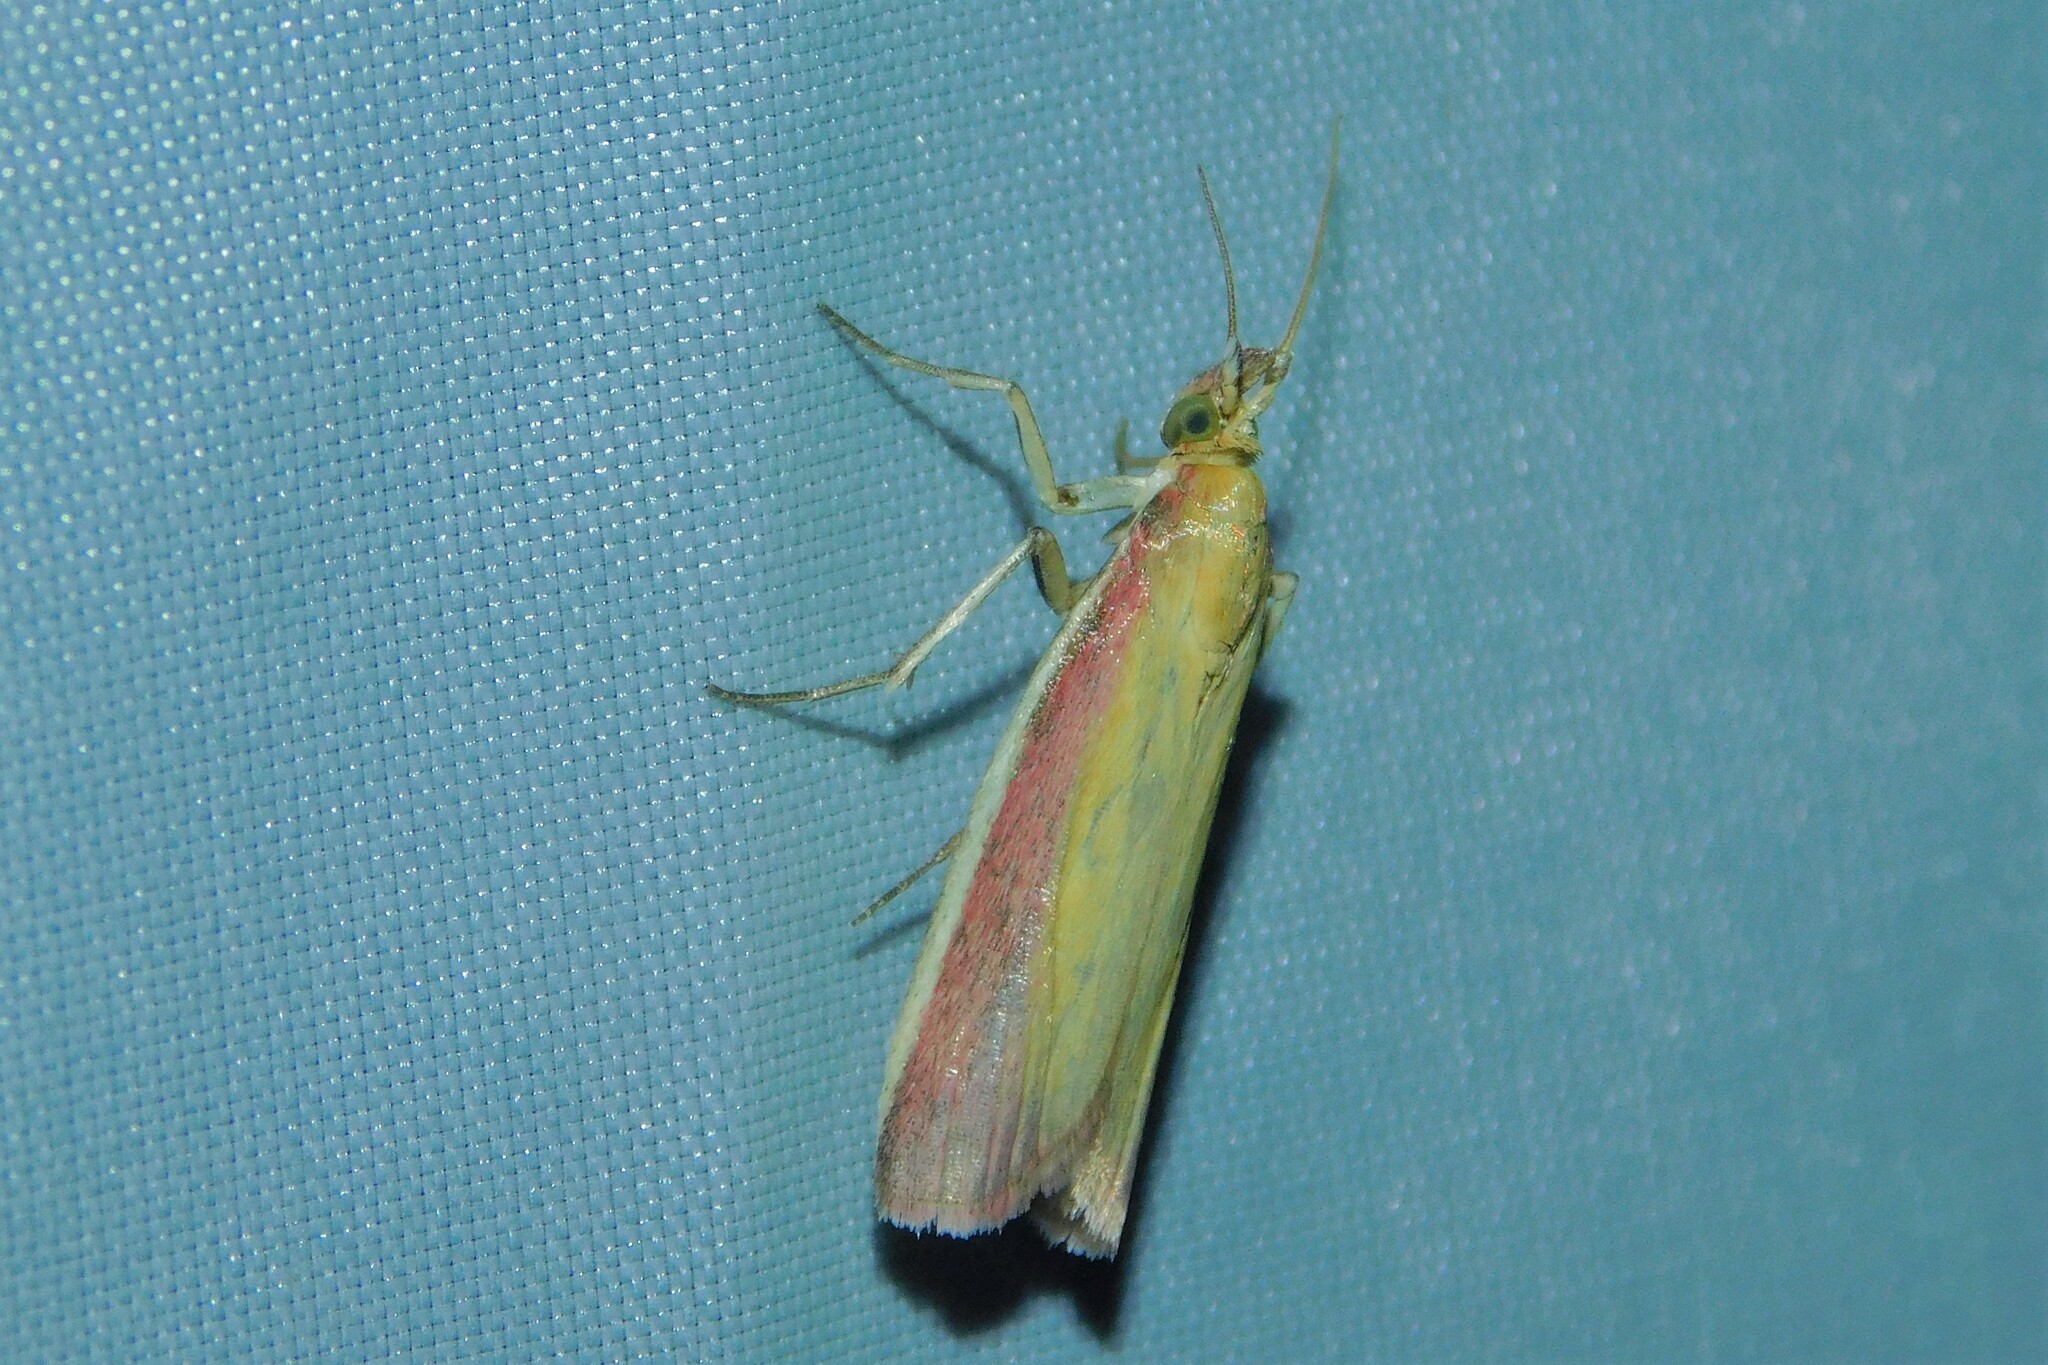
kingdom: Animalia
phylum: Arthropoda
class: Insecta
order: Lepidoptera
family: Pyralidae
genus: Oncocera
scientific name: Oncocera semirubella
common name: Rosy-striped knot-horn
